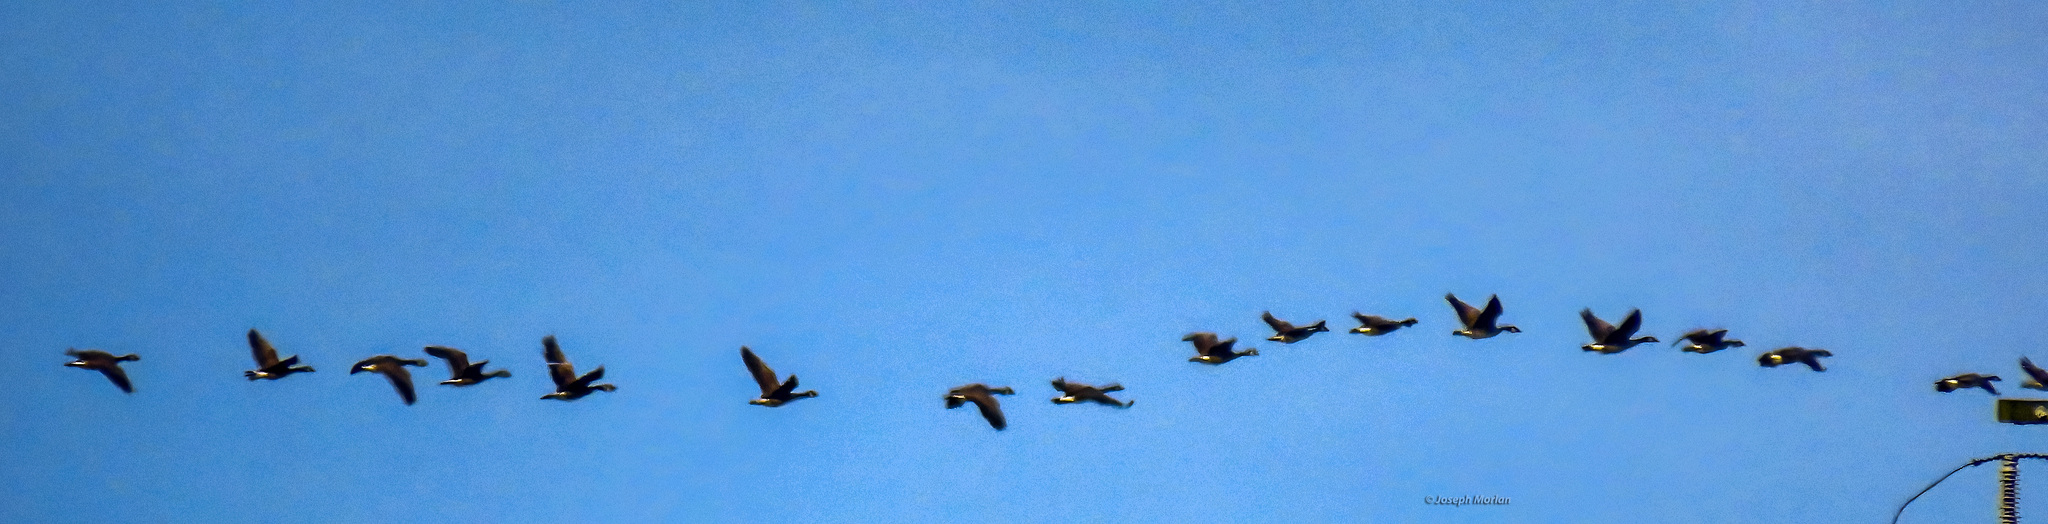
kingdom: Animalia
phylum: Chordata
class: Aves
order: Anseriformes
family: Anatidae
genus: Branta
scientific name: Branta hutchinsii
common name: Cackling goose
